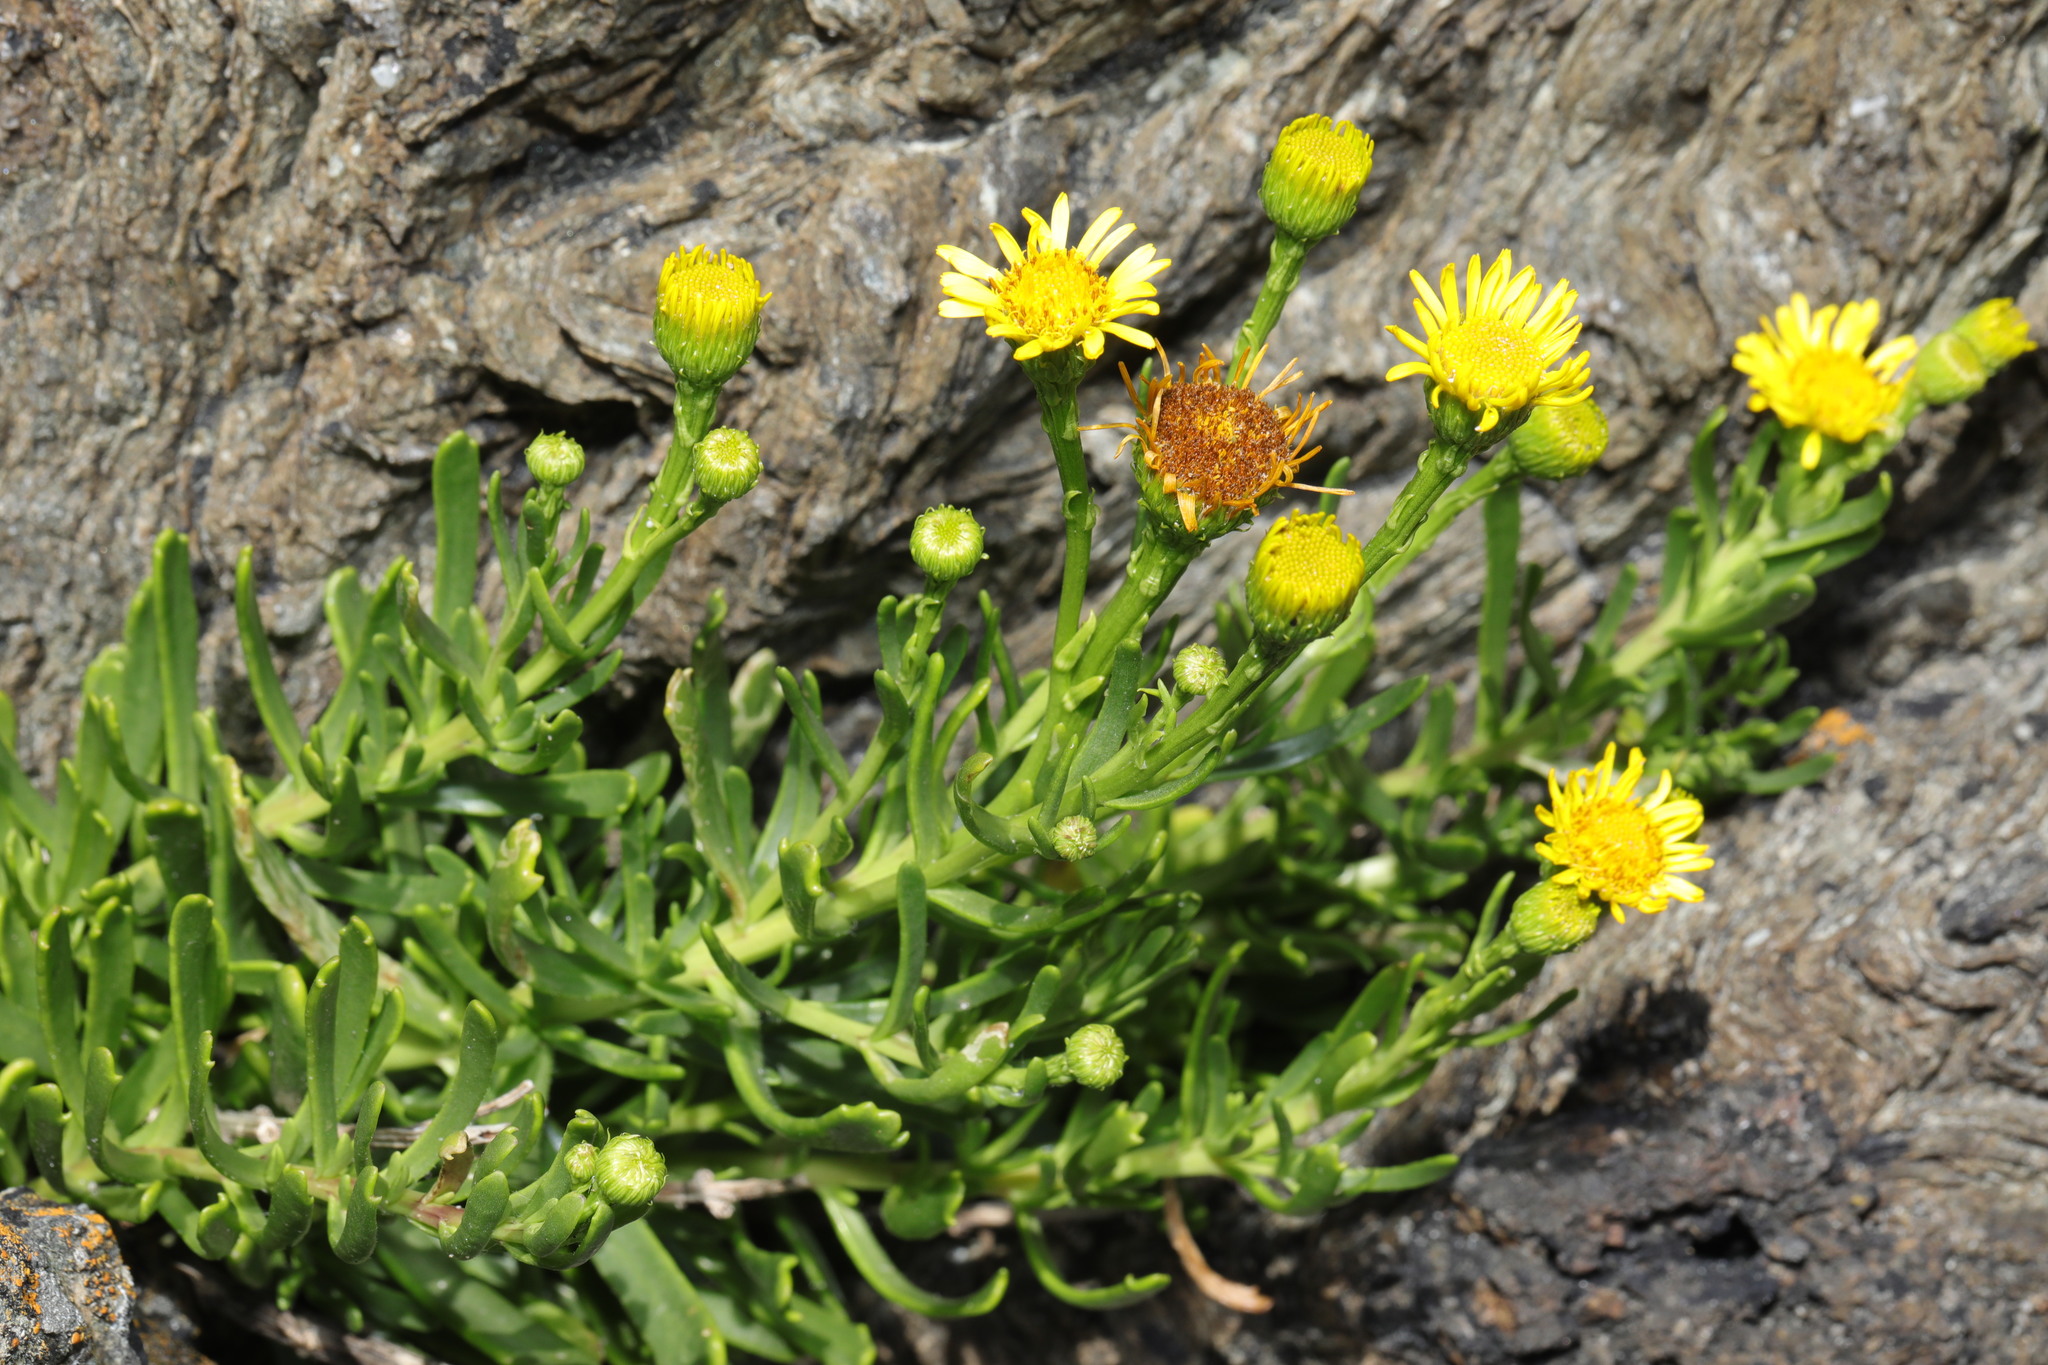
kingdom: Plantae
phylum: Tracheophyta
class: Magnoliopsida
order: Asterales
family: Asteraceae
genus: Limbarda
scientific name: Limbarda crithmoides
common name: Golden samphire
